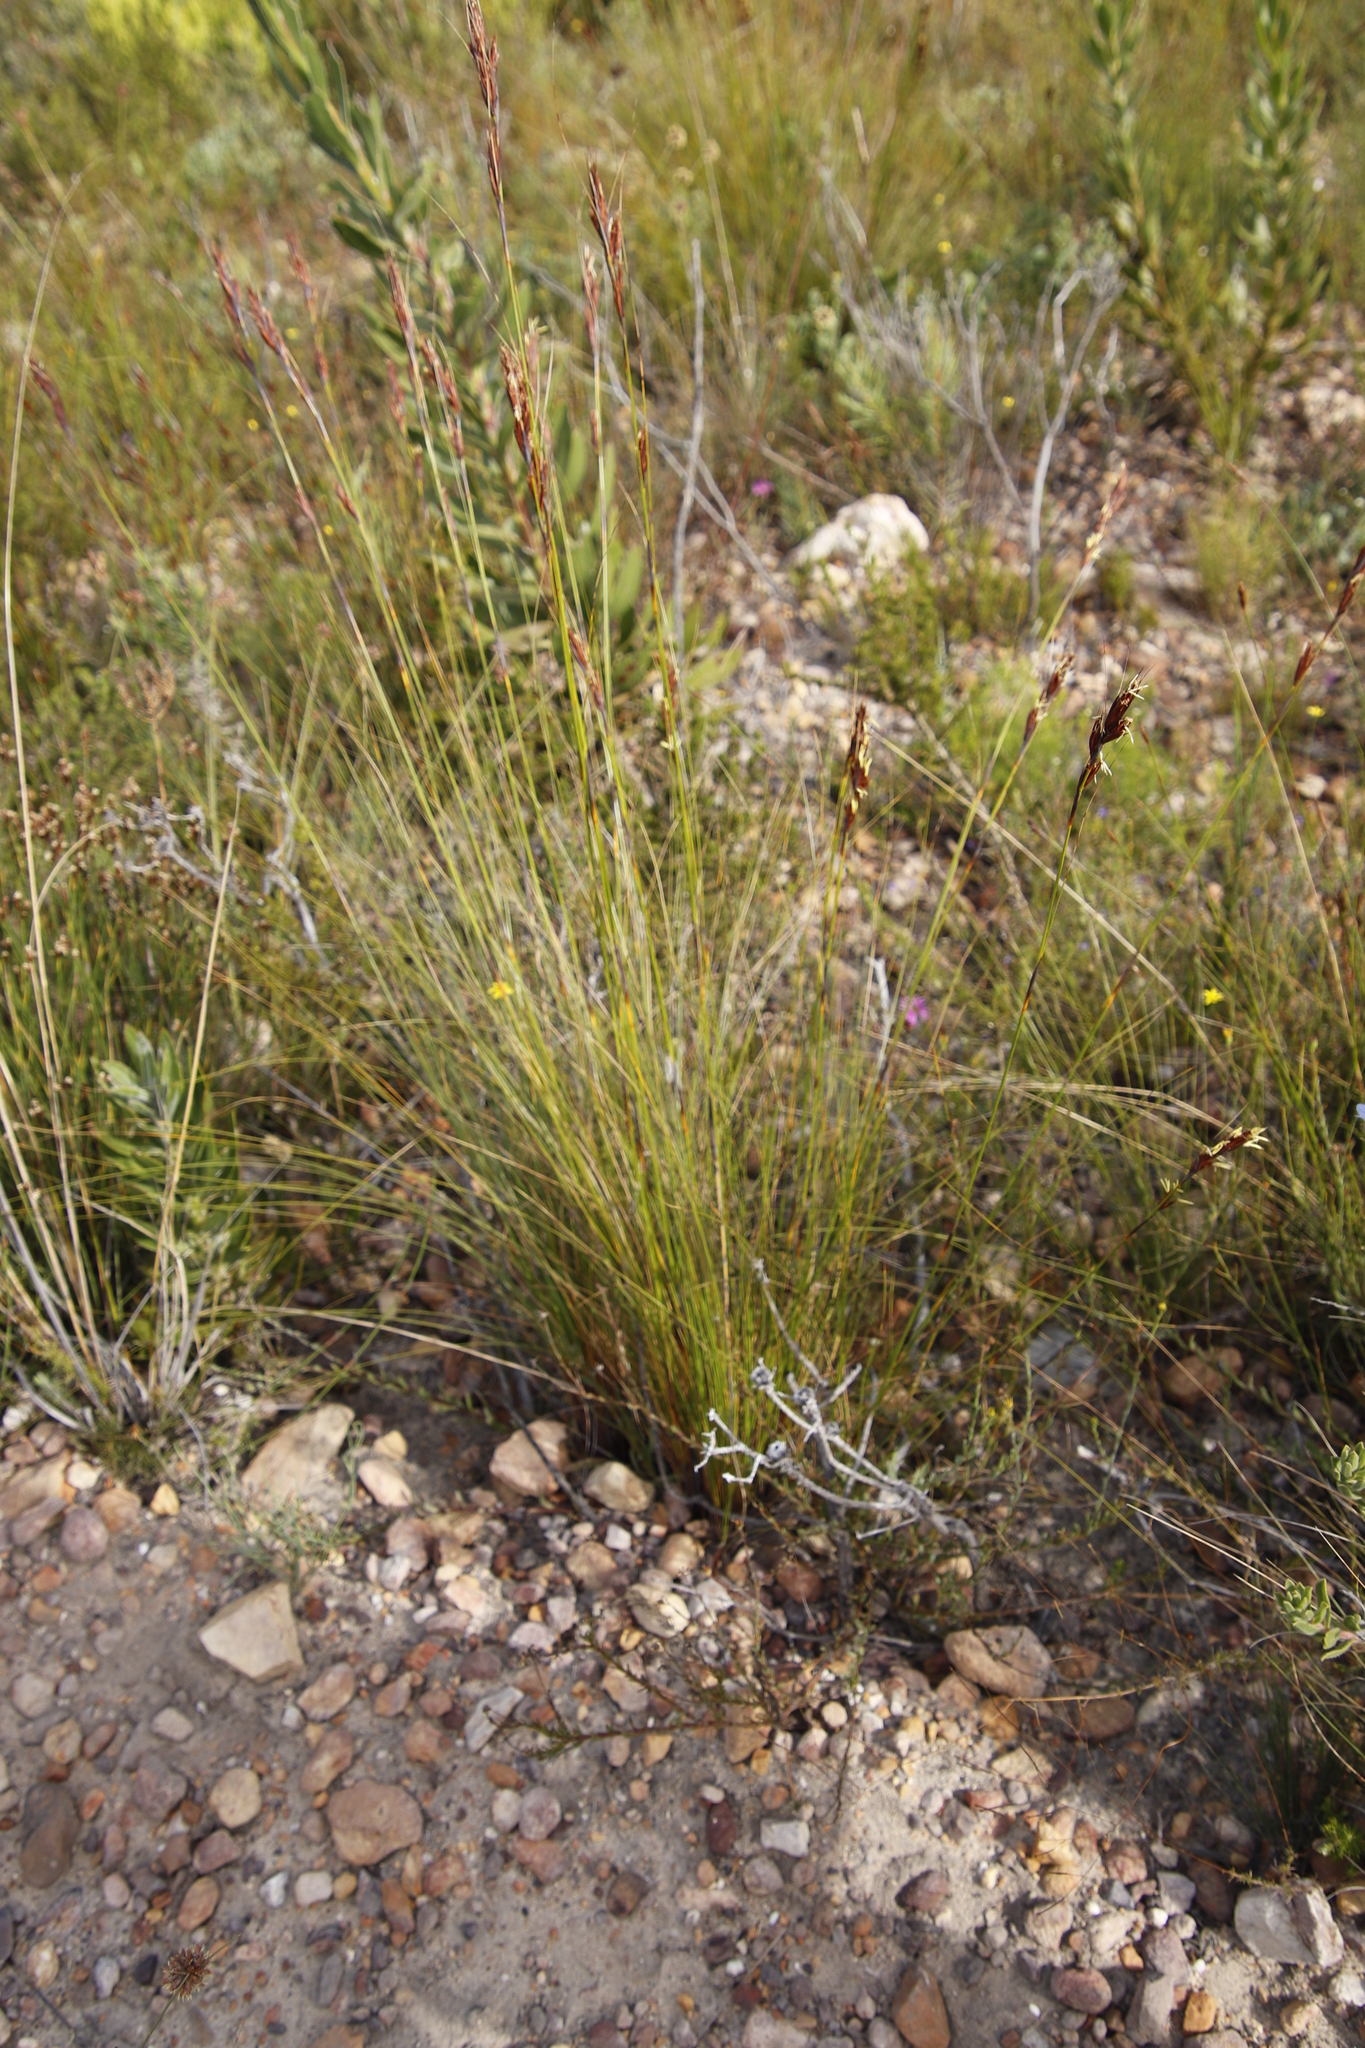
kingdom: Plantae
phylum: Tracheophyta
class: Liliopsida
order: Poales
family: Cyperaceae
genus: Tetraria
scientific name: Tetraria ustulata
